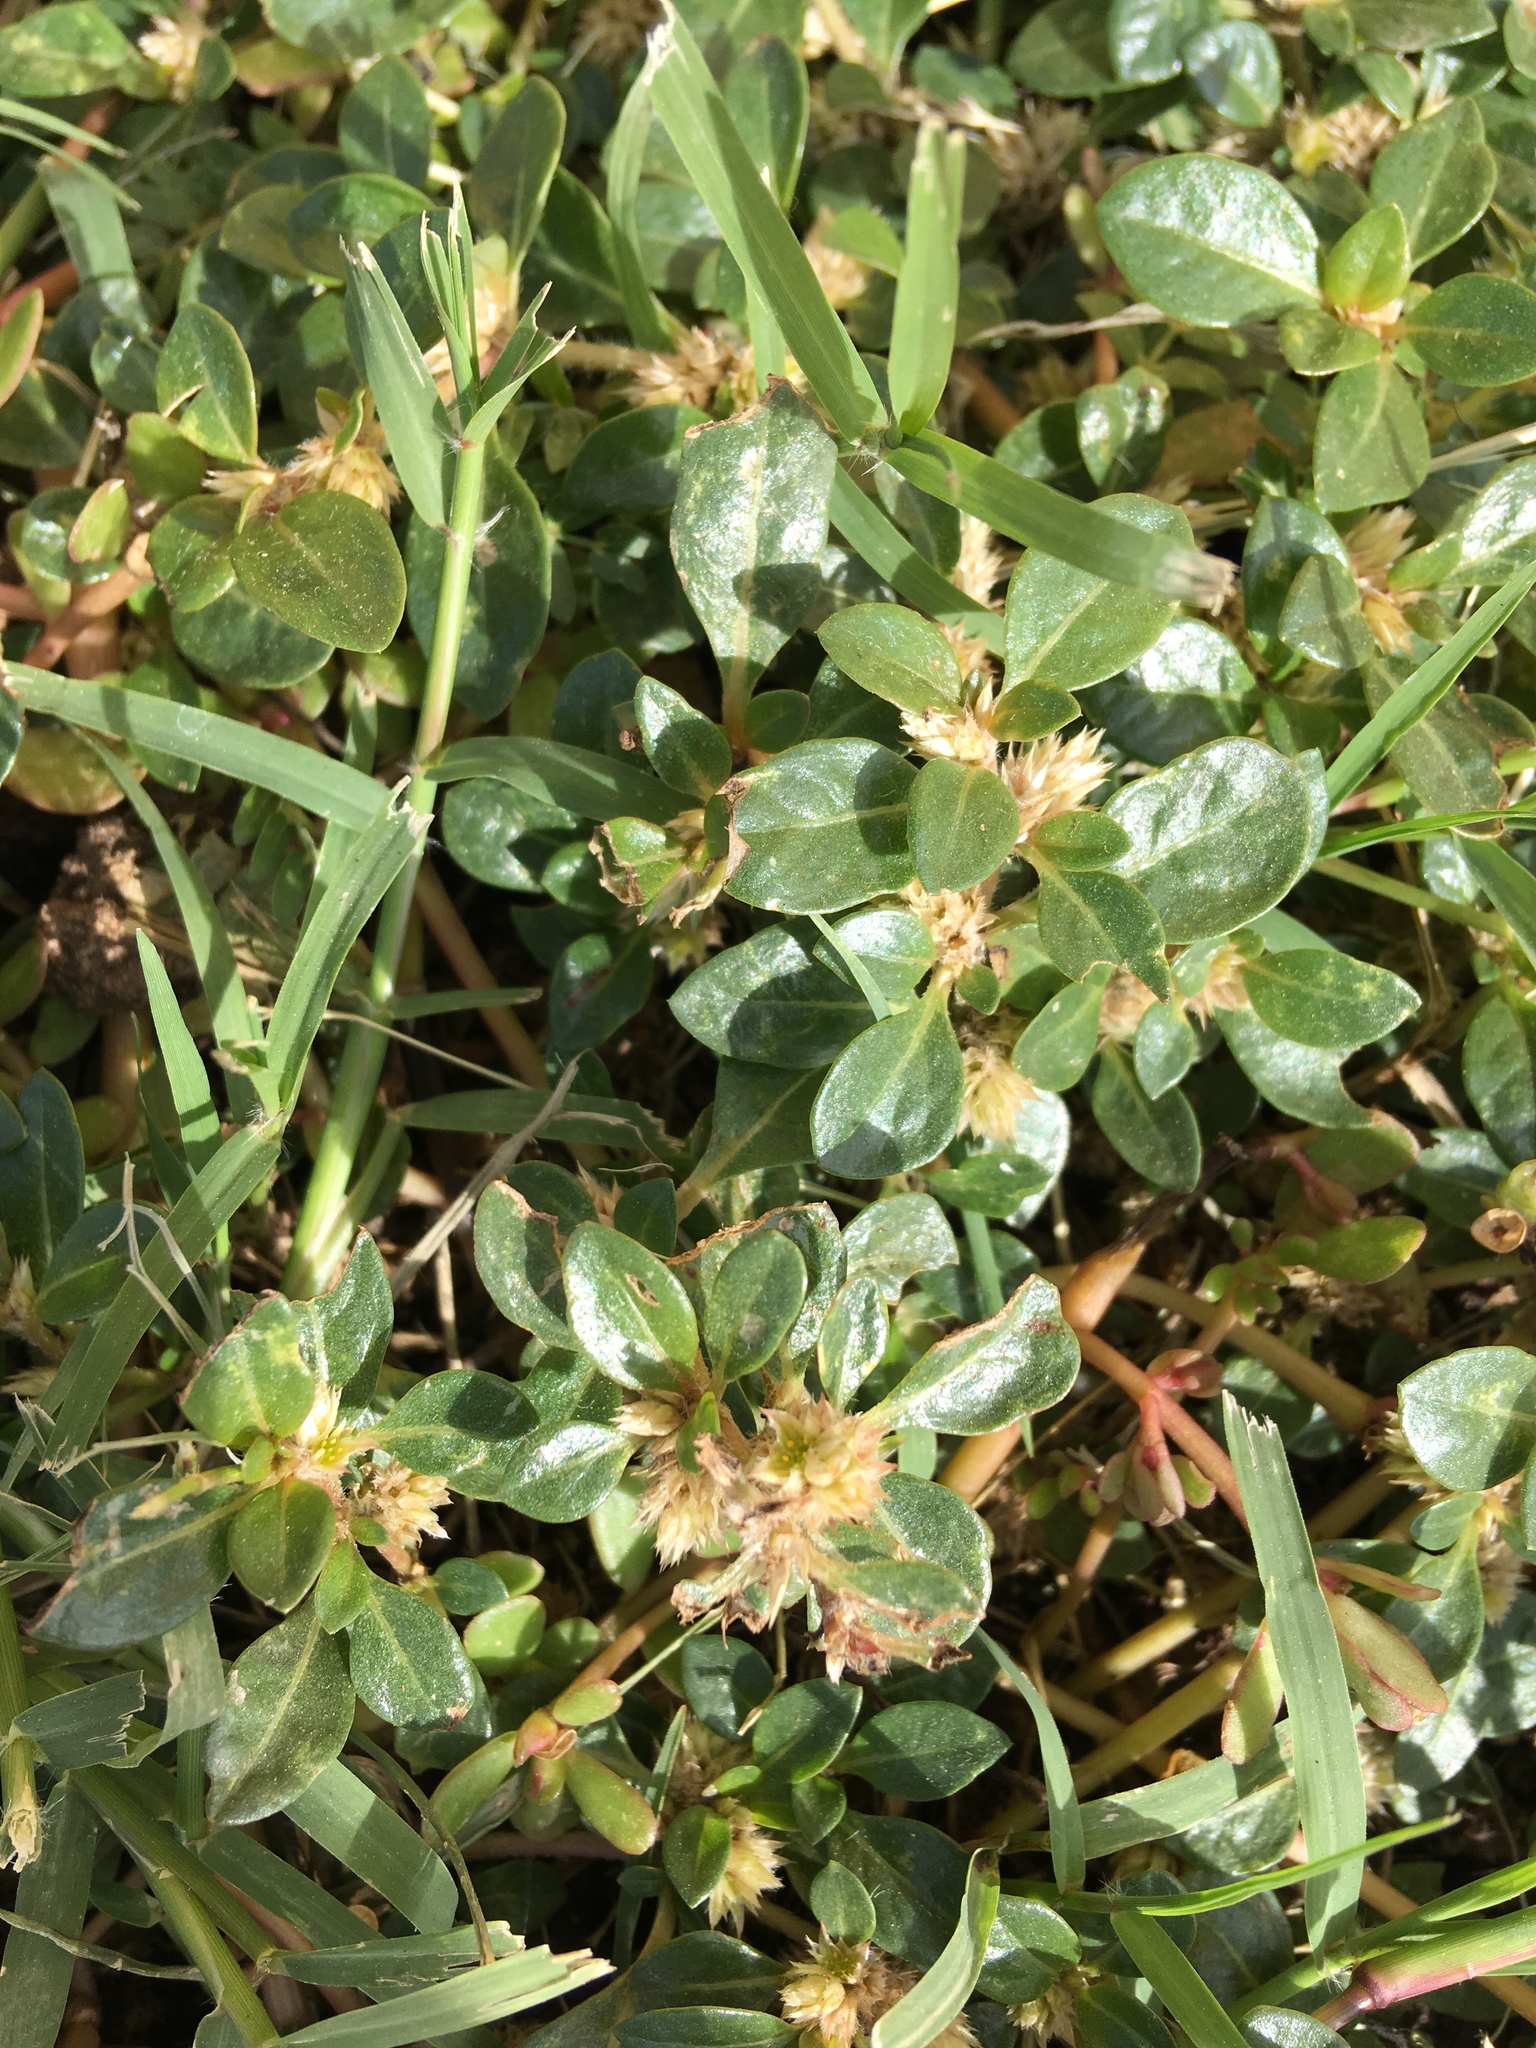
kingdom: Plantae
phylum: Tracheophyta
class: Magnoliopsida
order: Caryophyllales
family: Amaranthaceae
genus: Alternanthera
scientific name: Alternanthera caracasana
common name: Washerwoman
